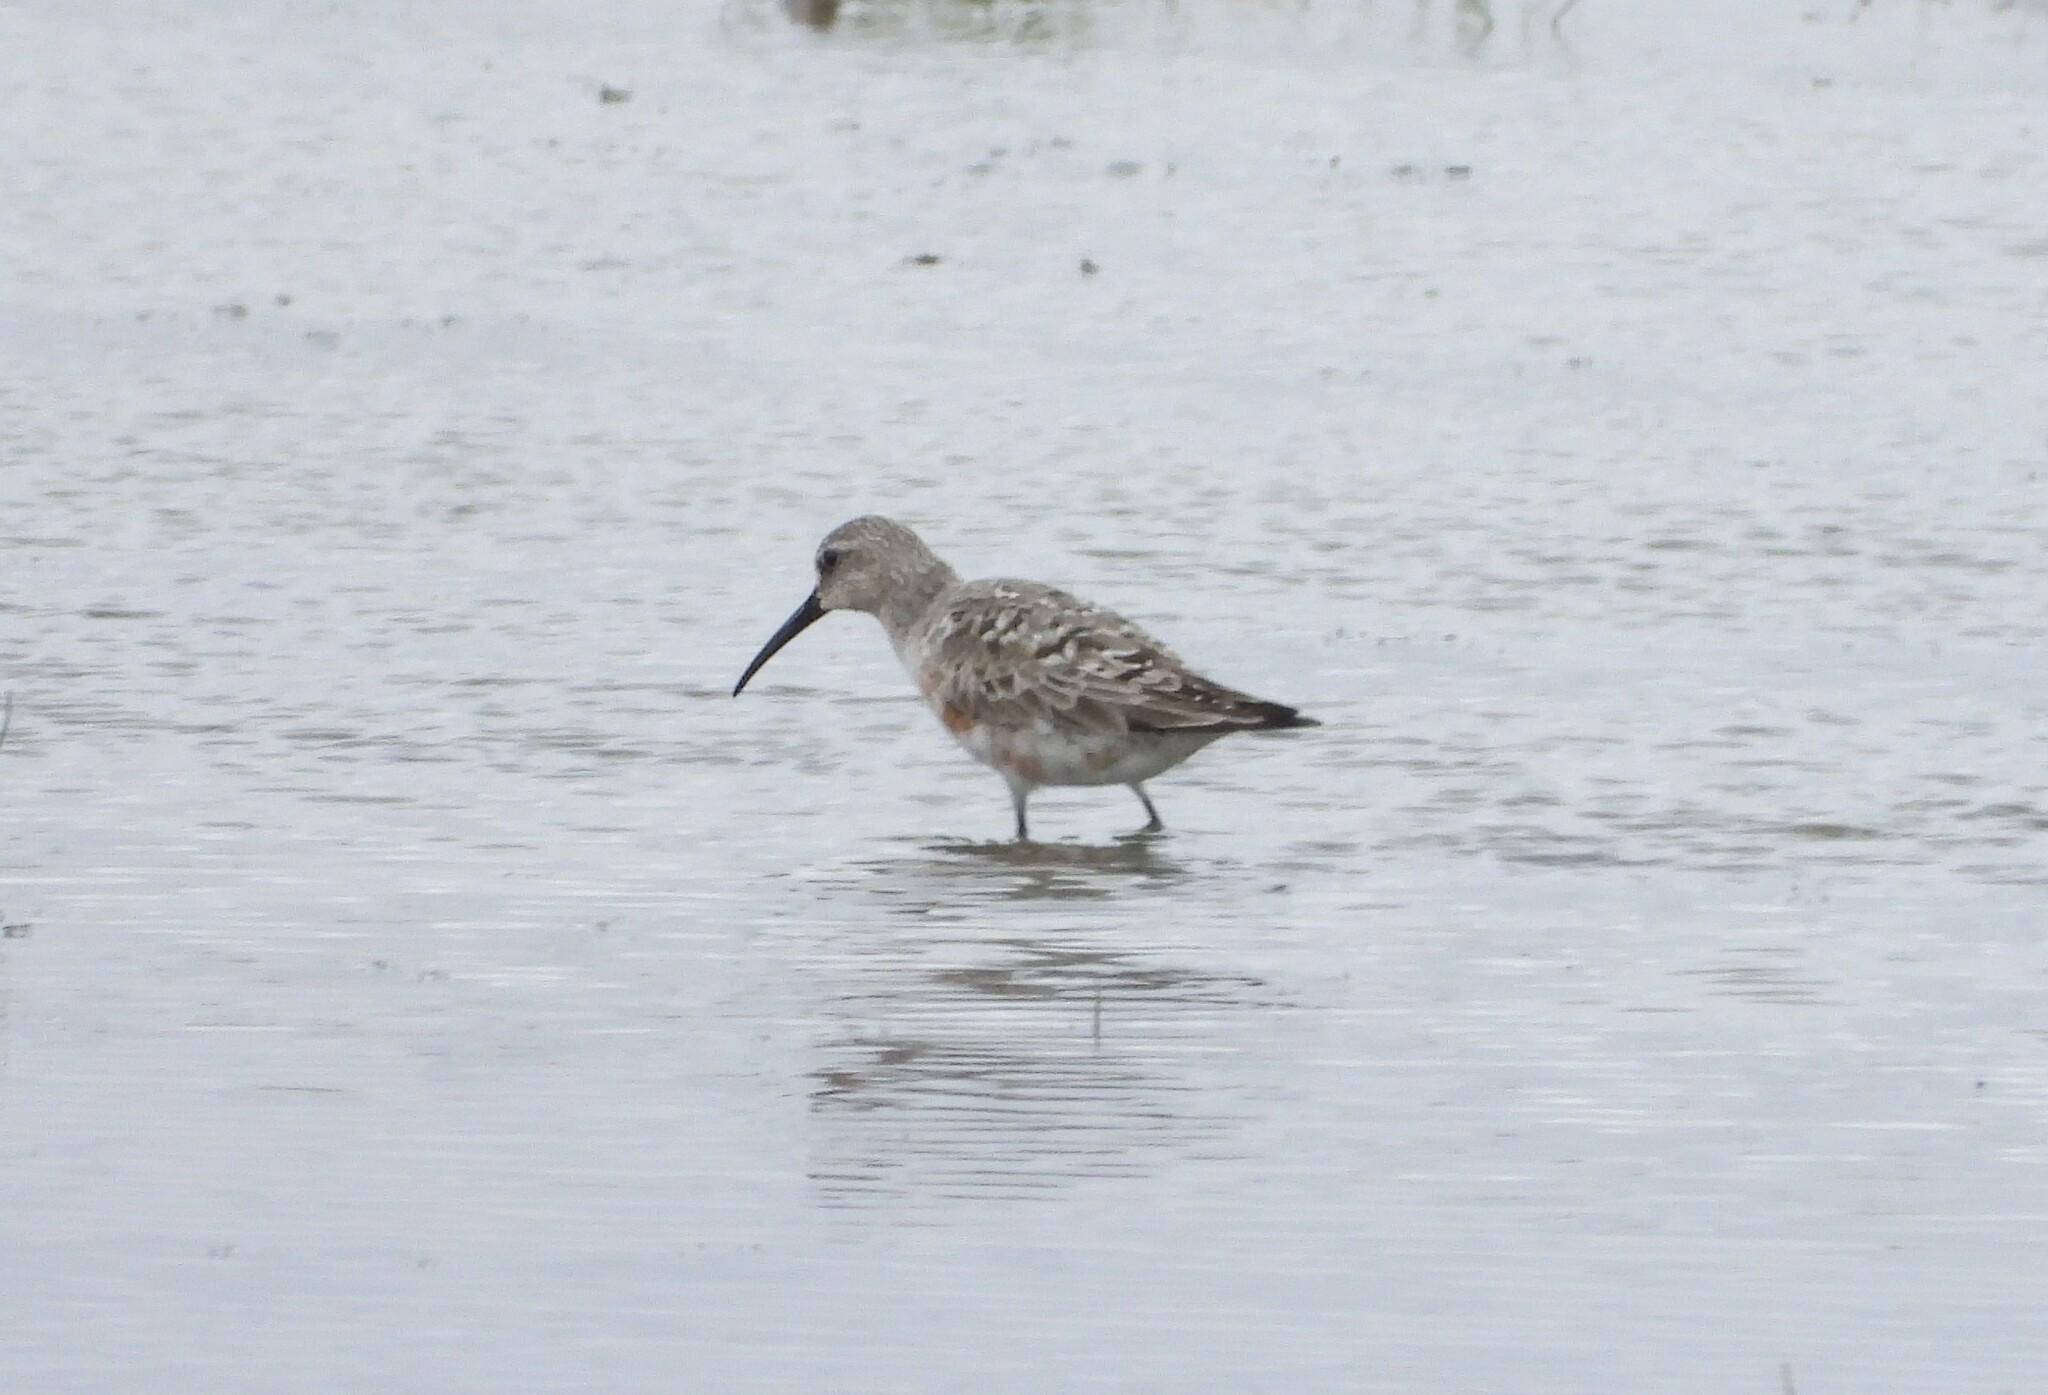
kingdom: Animalia
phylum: Chordata
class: Aves
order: Charadriiformes
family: Scolopacidae
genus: Calidris
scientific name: Calidris ferruginea
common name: Curlew sandpiper
